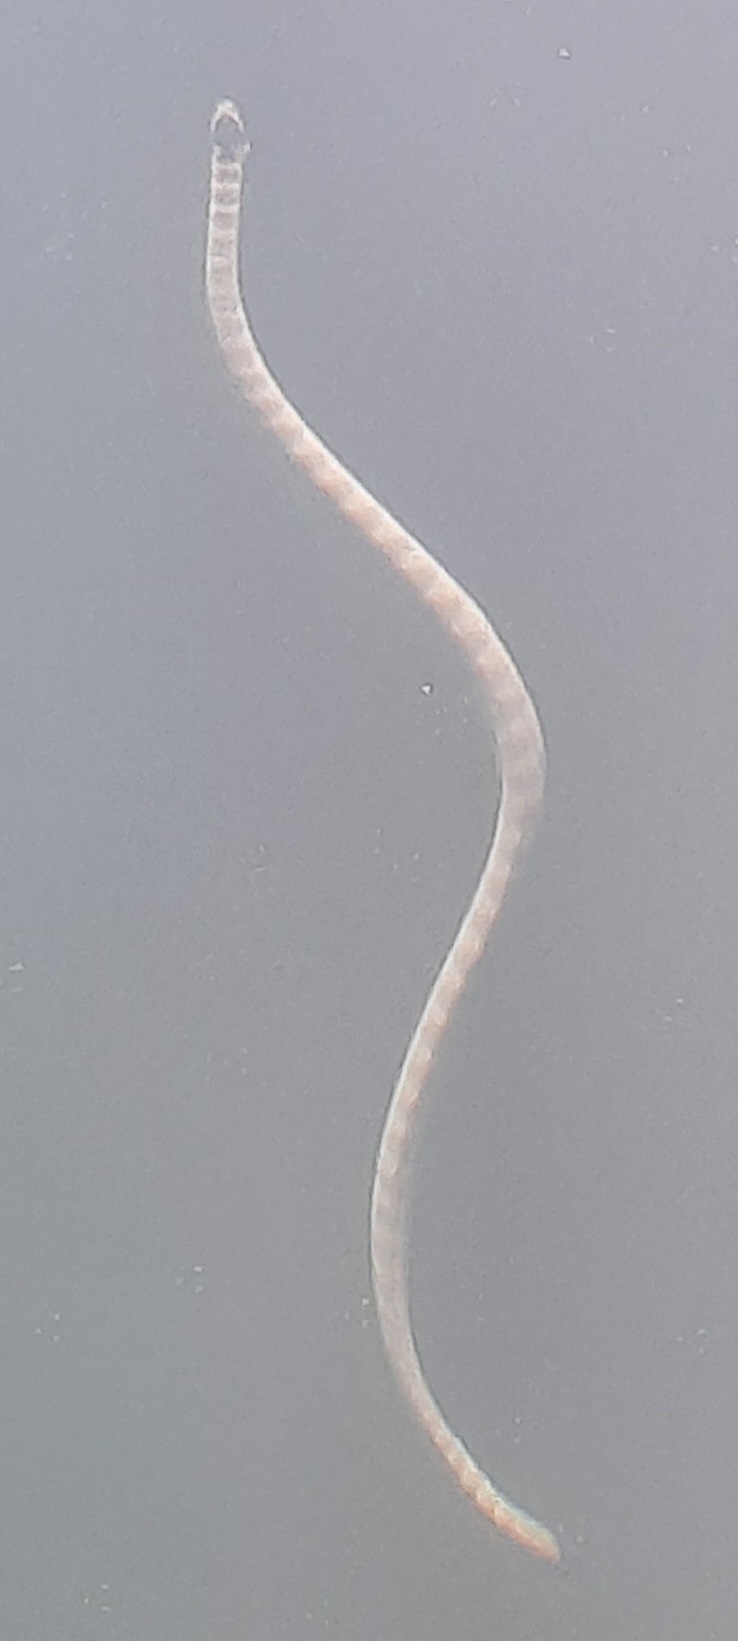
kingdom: Animalia
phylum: Chordata
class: Squamata
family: Elapidae
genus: Hydrophis
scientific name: Hydrophis lapemoides
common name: Persian gulf sea snake
